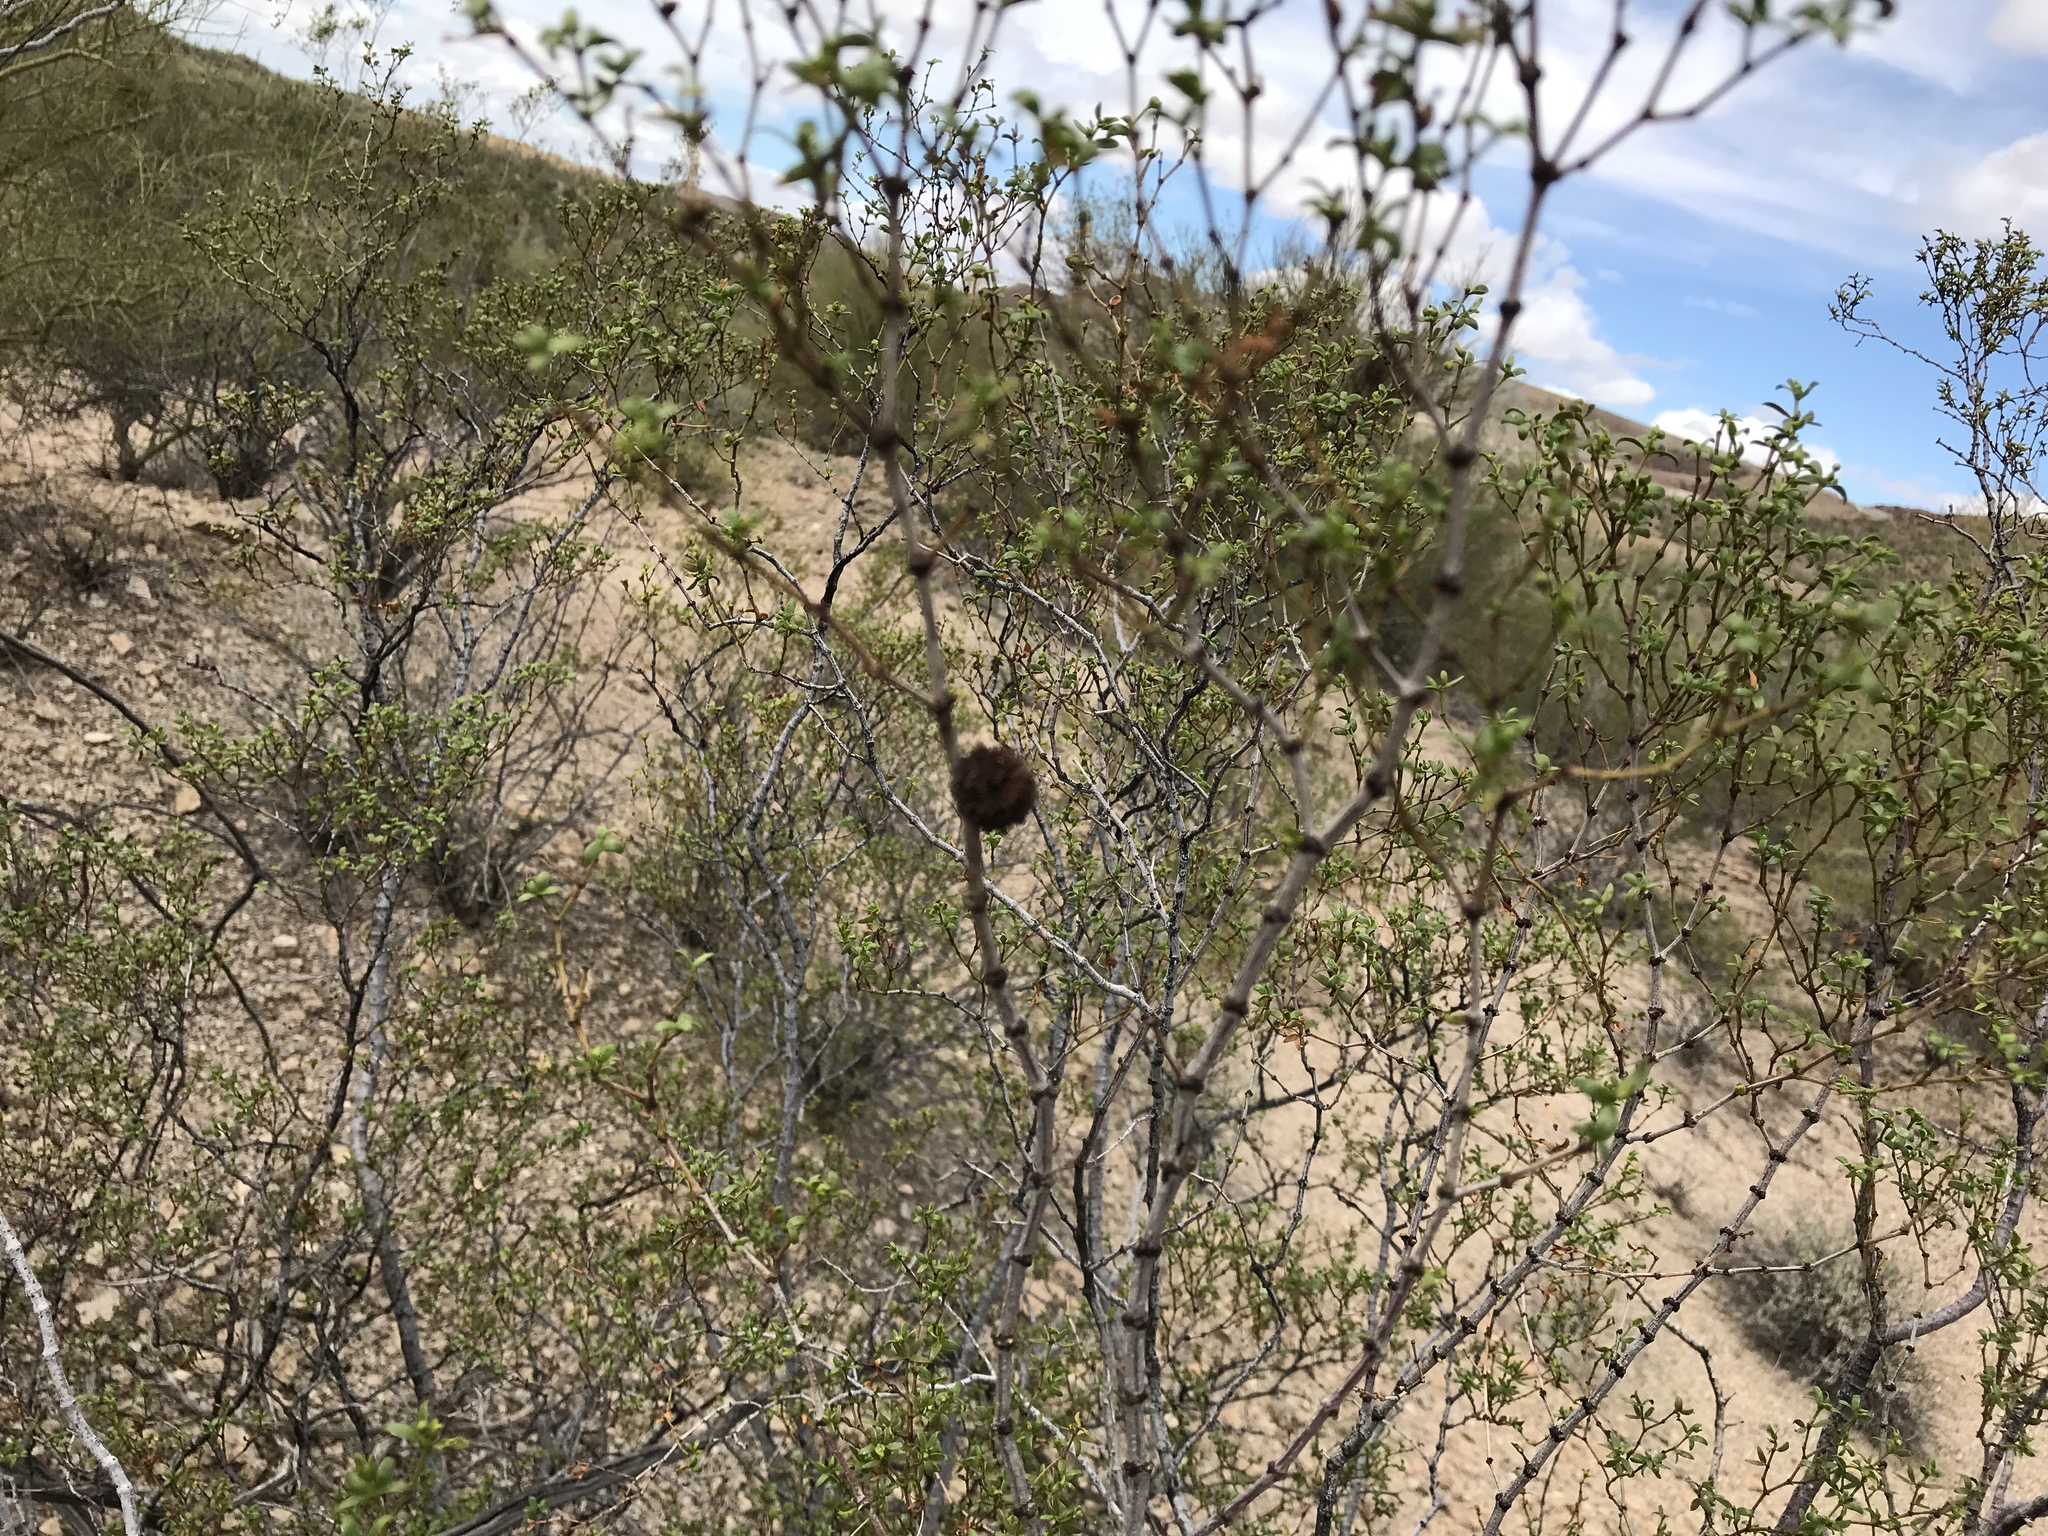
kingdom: Animalia
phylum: Arthropoda
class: Insecta
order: Diptera
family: Cecidomyiidae
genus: Asphondylia
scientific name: Asphondylia auripila
